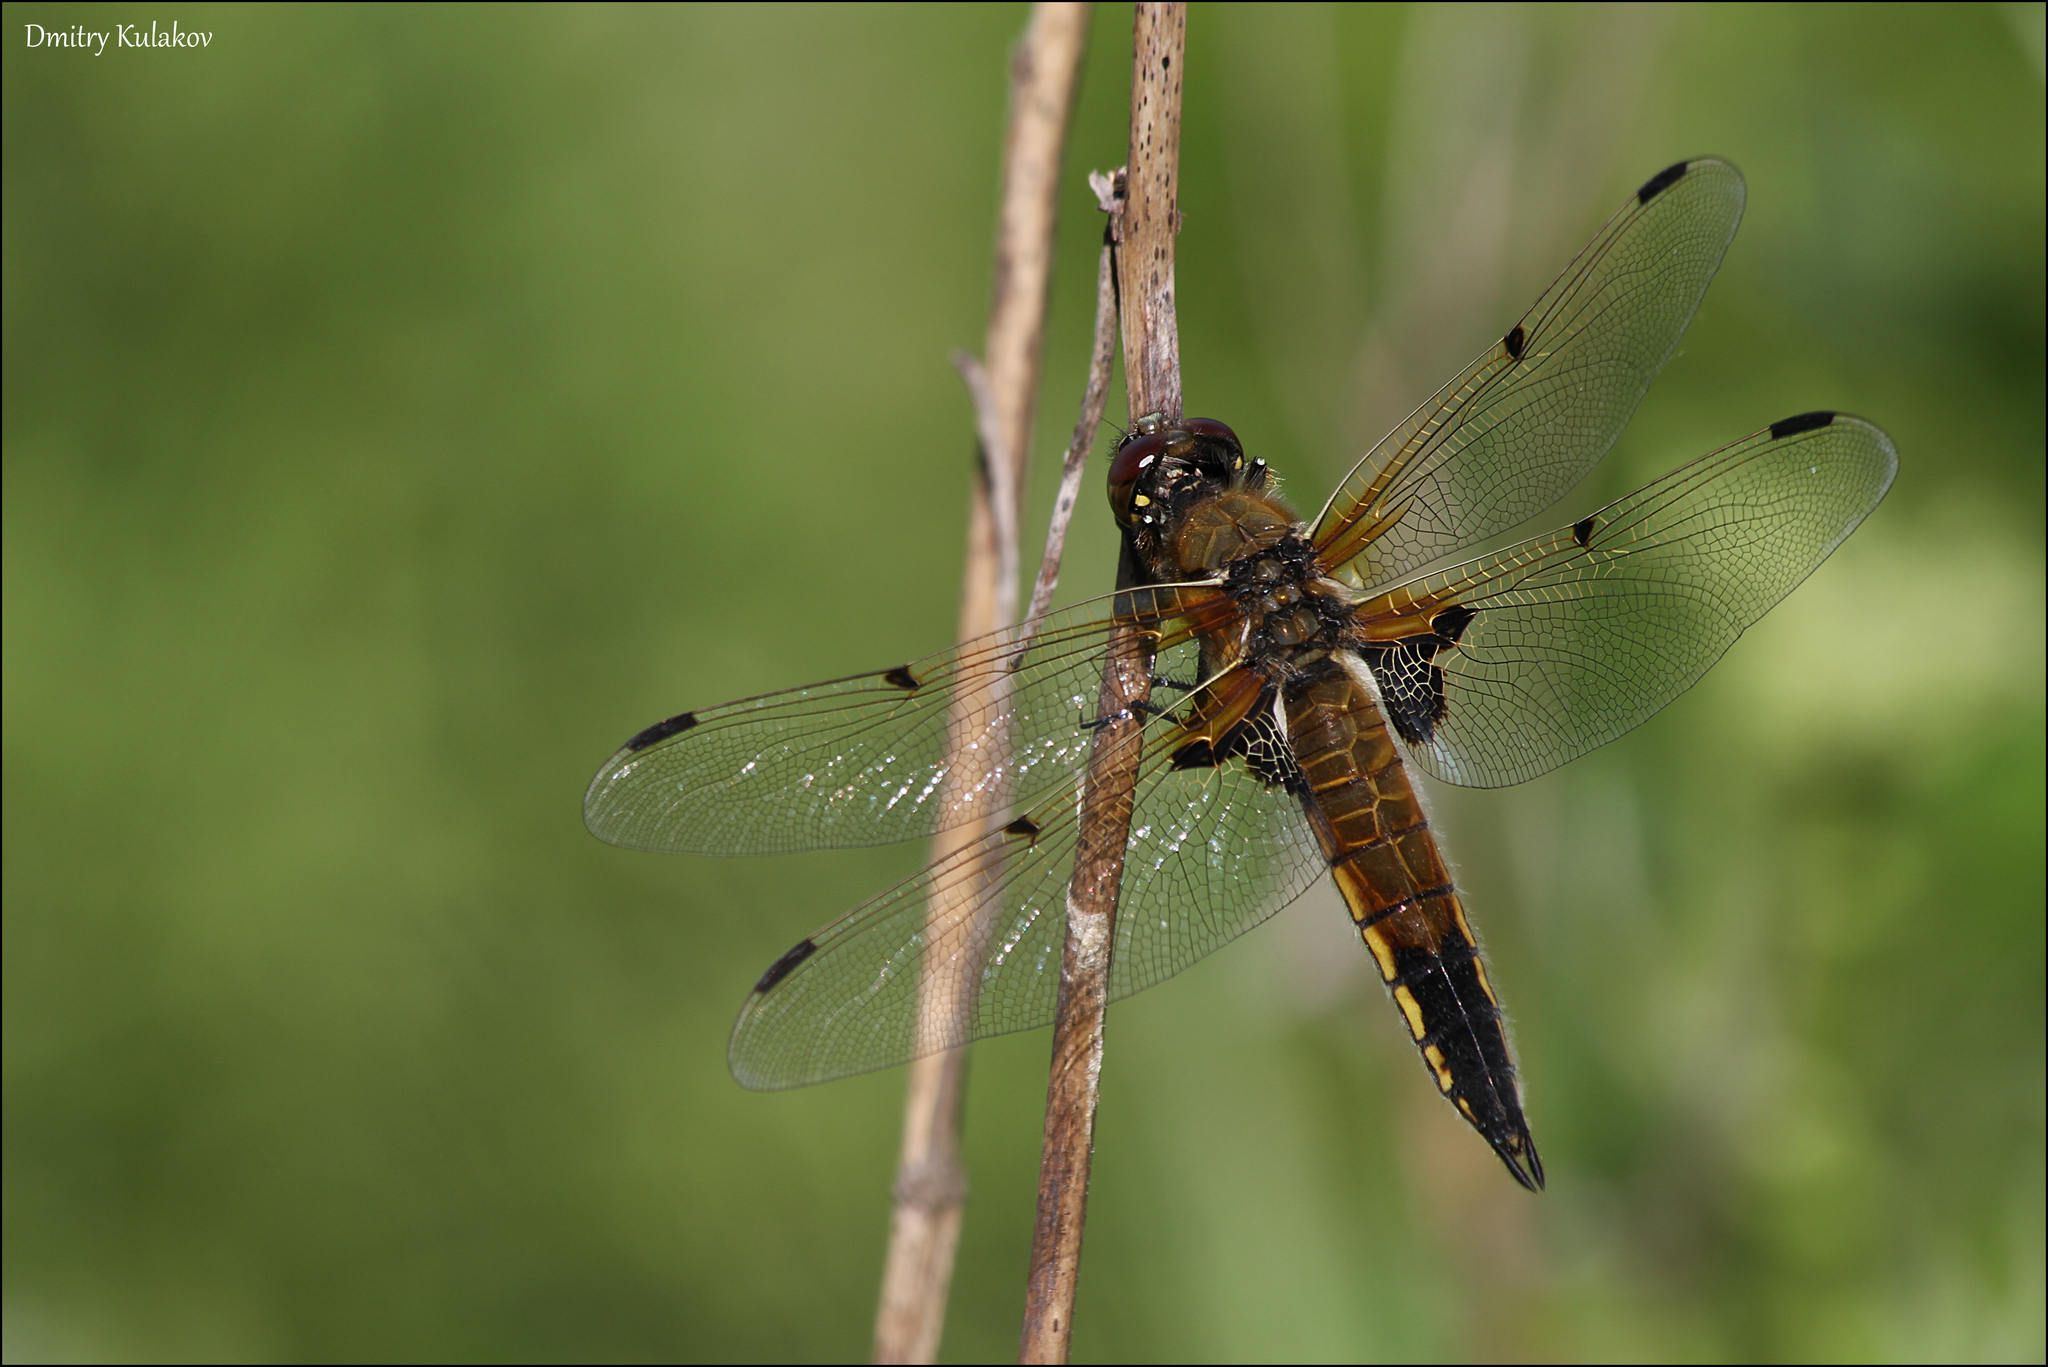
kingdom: Animalia
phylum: Arthropoda
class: Insecta
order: Odonata
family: Libellulidae
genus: Libellula
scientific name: Libellula quadrimaculata
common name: Four-spotted chaser
